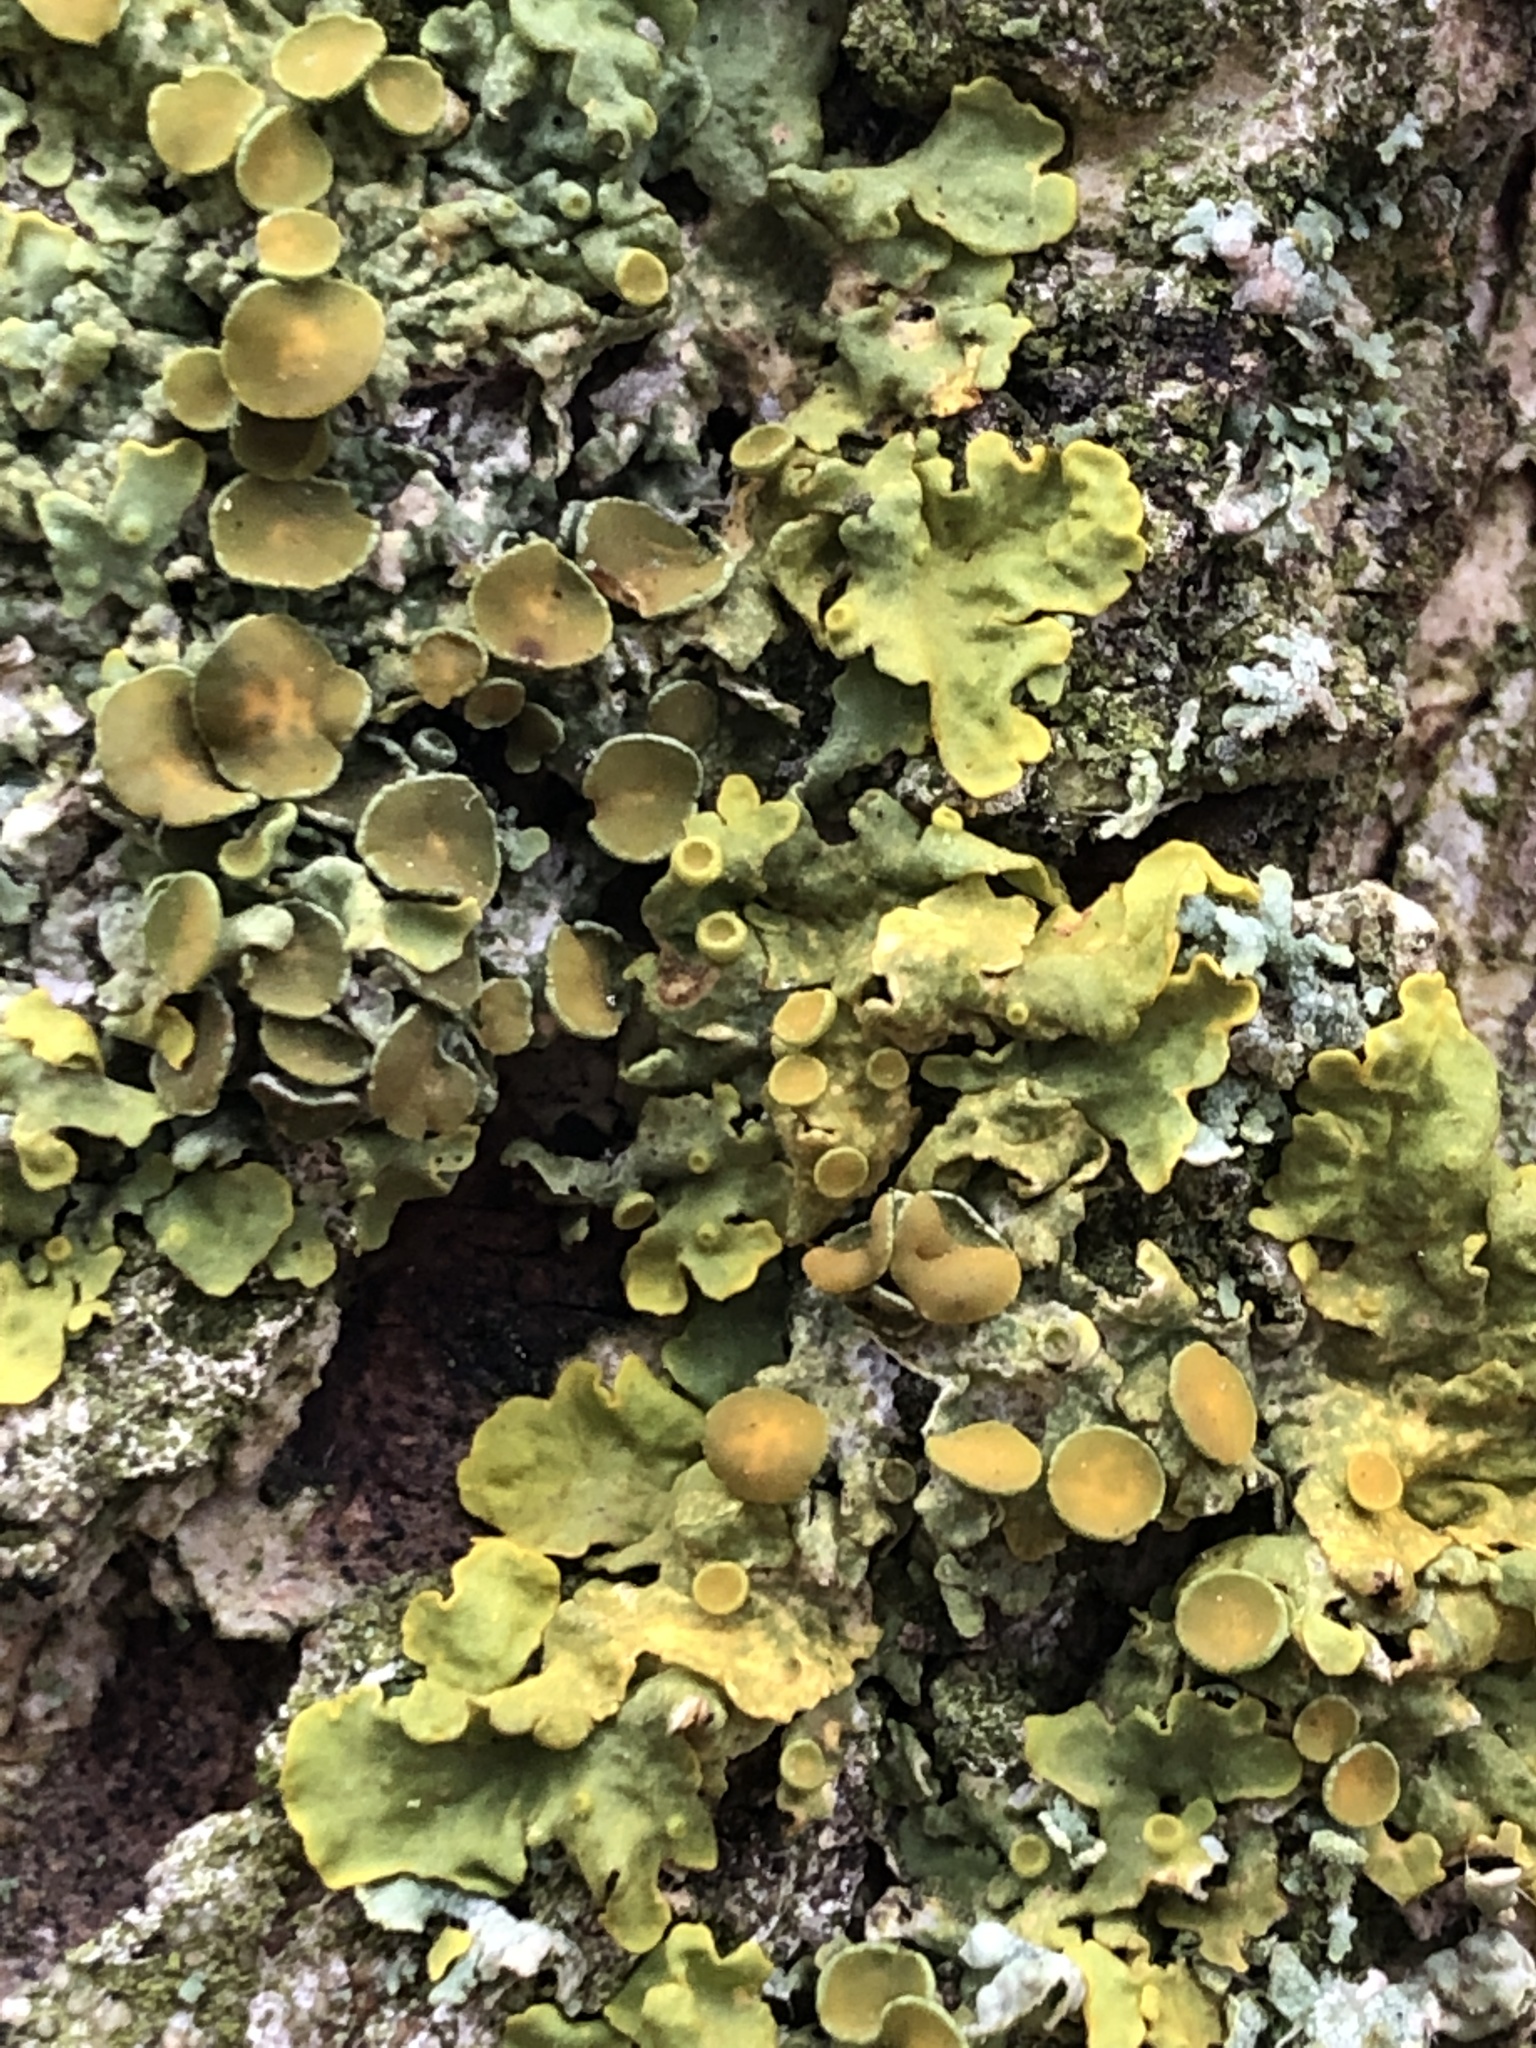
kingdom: Fungi
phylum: Ascomycota
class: Lecanoromycetes
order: Teloschistales
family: Teloschistaceae
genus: Xanthoria
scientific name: Xanthoria parietina
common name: Common orange lichen
